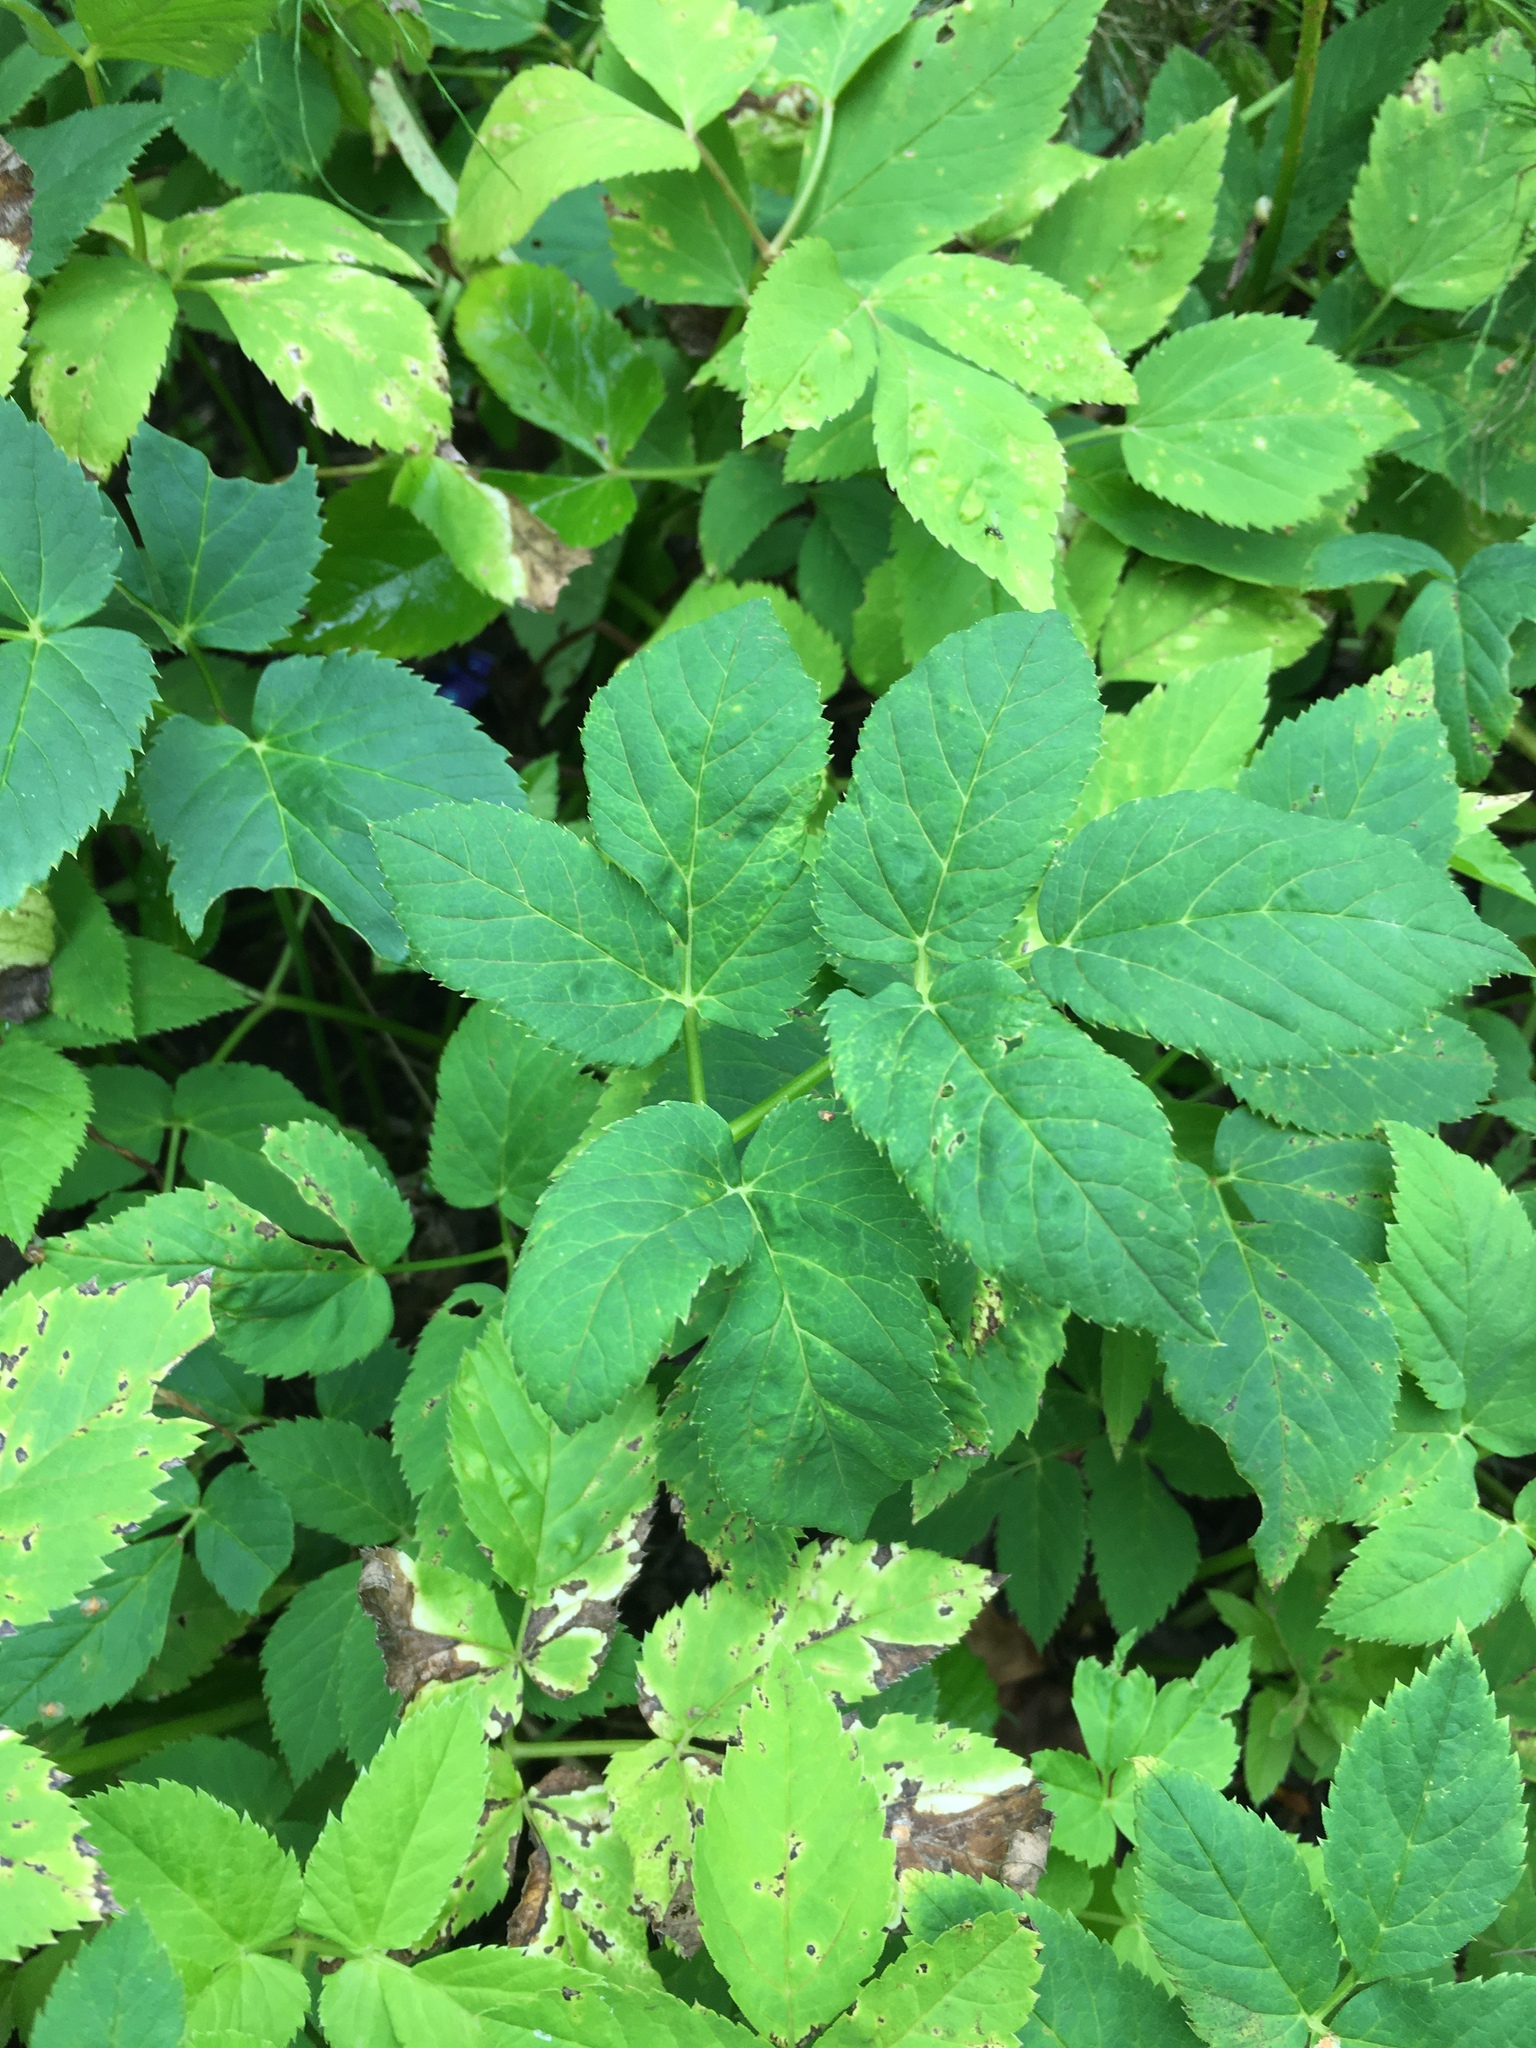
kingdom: Plantae
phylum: Tracheophyta
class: Magnoliopsida
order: Apiales
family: Apiaceae
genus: Aegopodium
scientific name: Aegopodium podagraria
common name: Ground-elder
